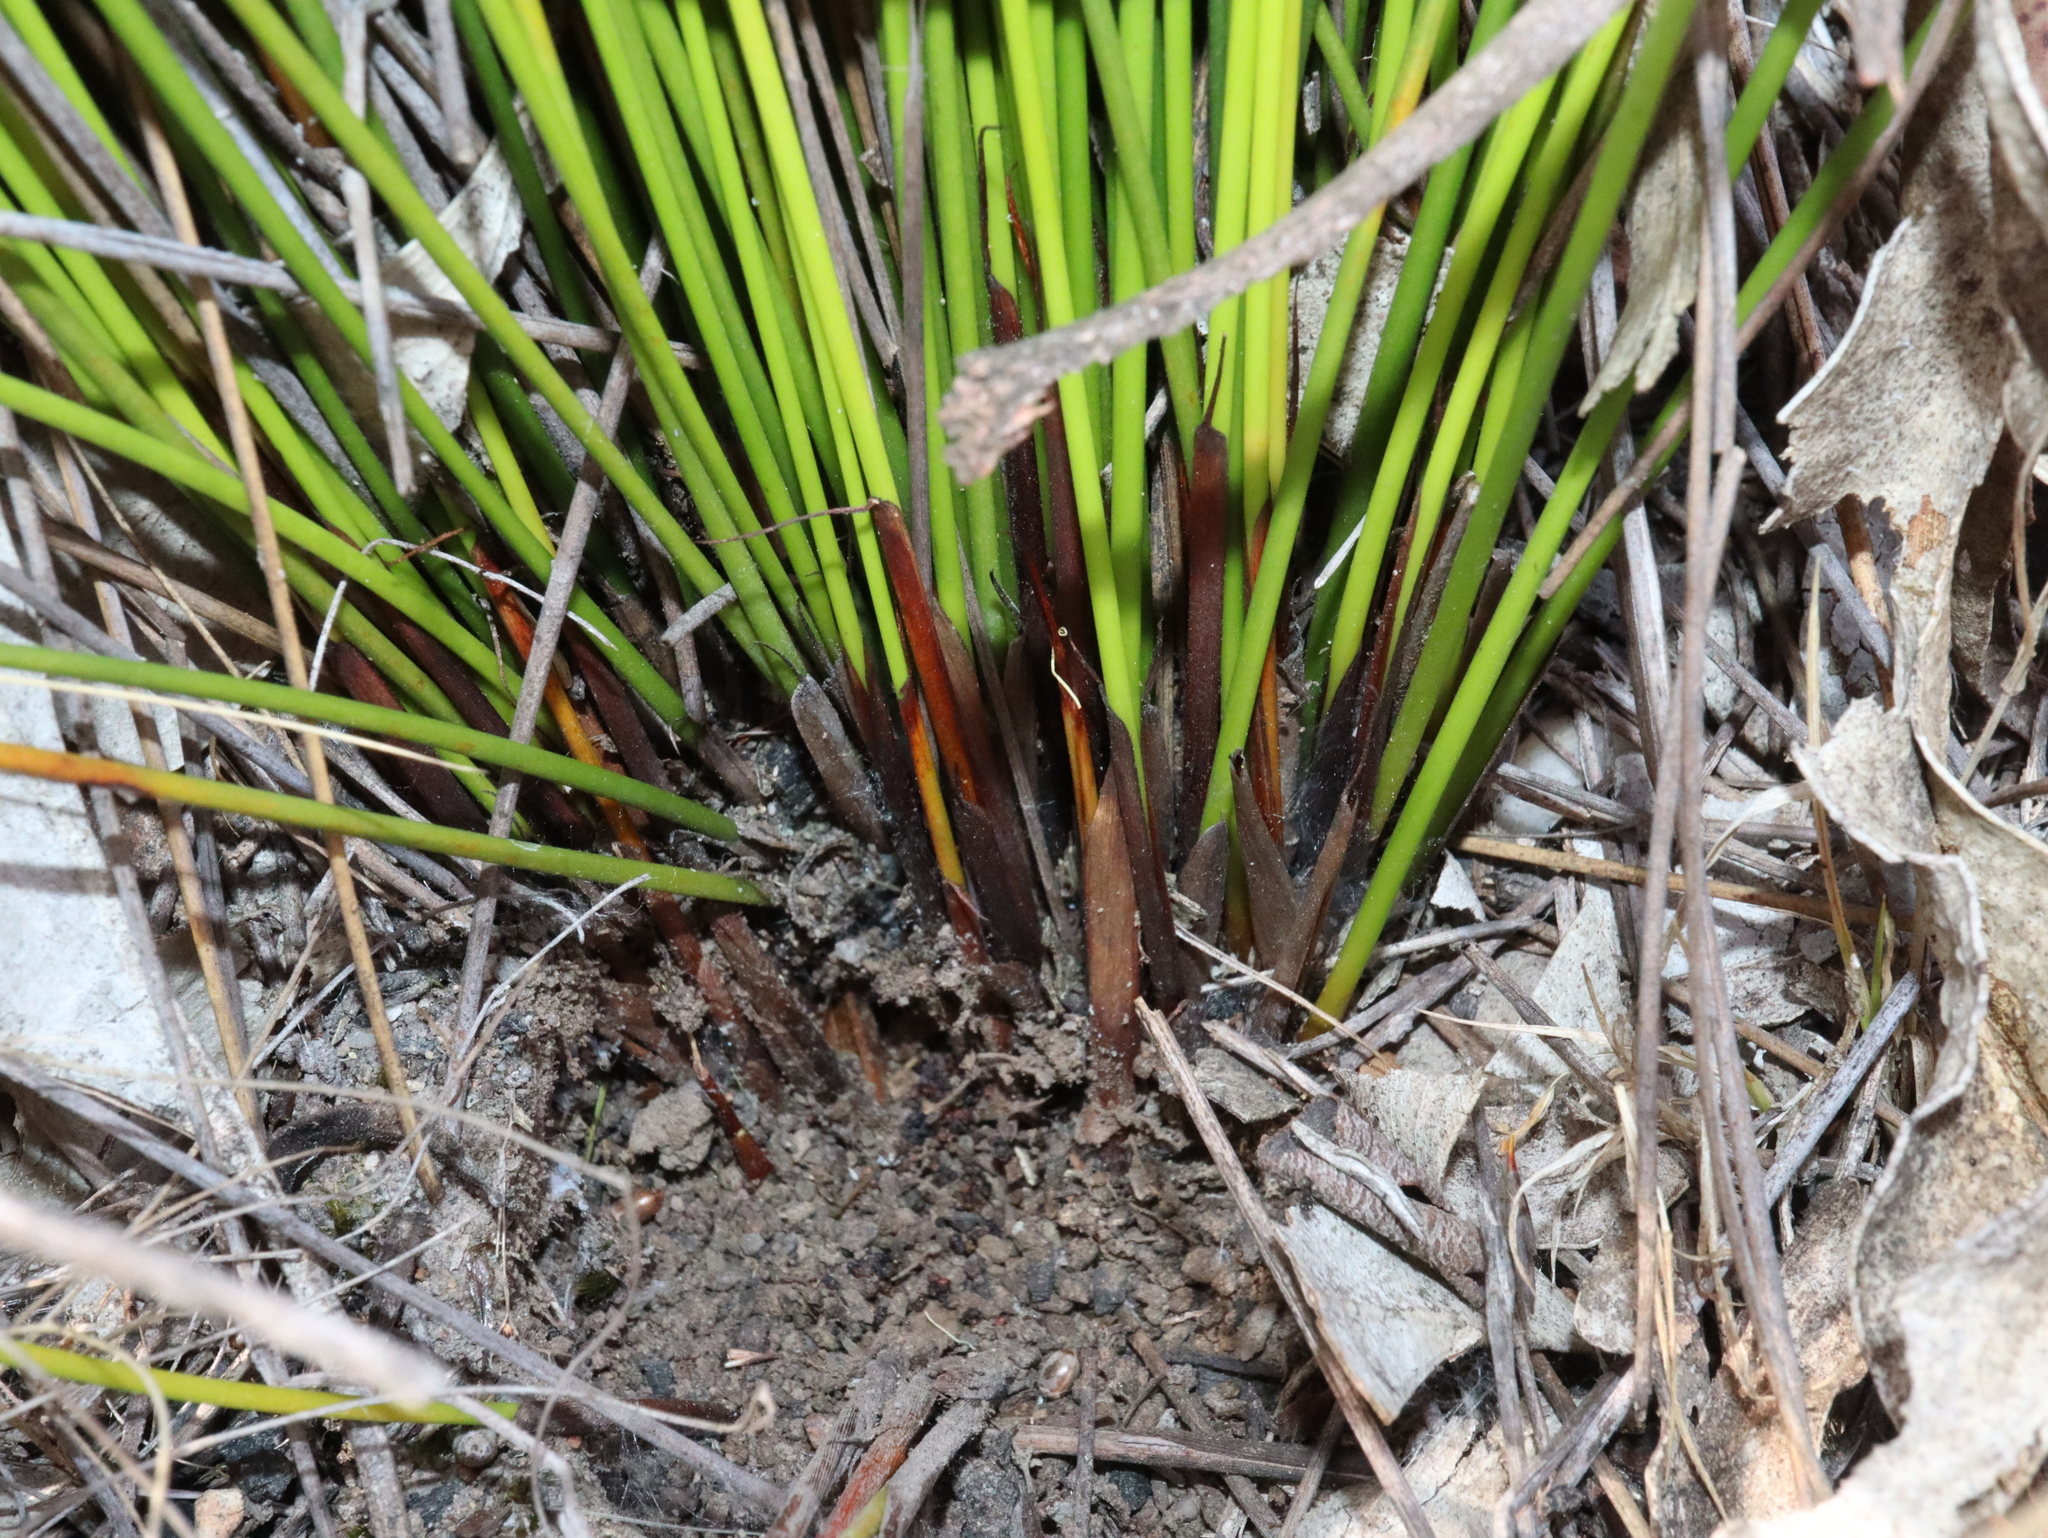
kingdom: Plantae
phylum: Tracheophyta
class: Liliopsida
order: Poales
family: Cyperaceae
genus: Lepidosperma
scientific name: Lepidosperma urophorum
